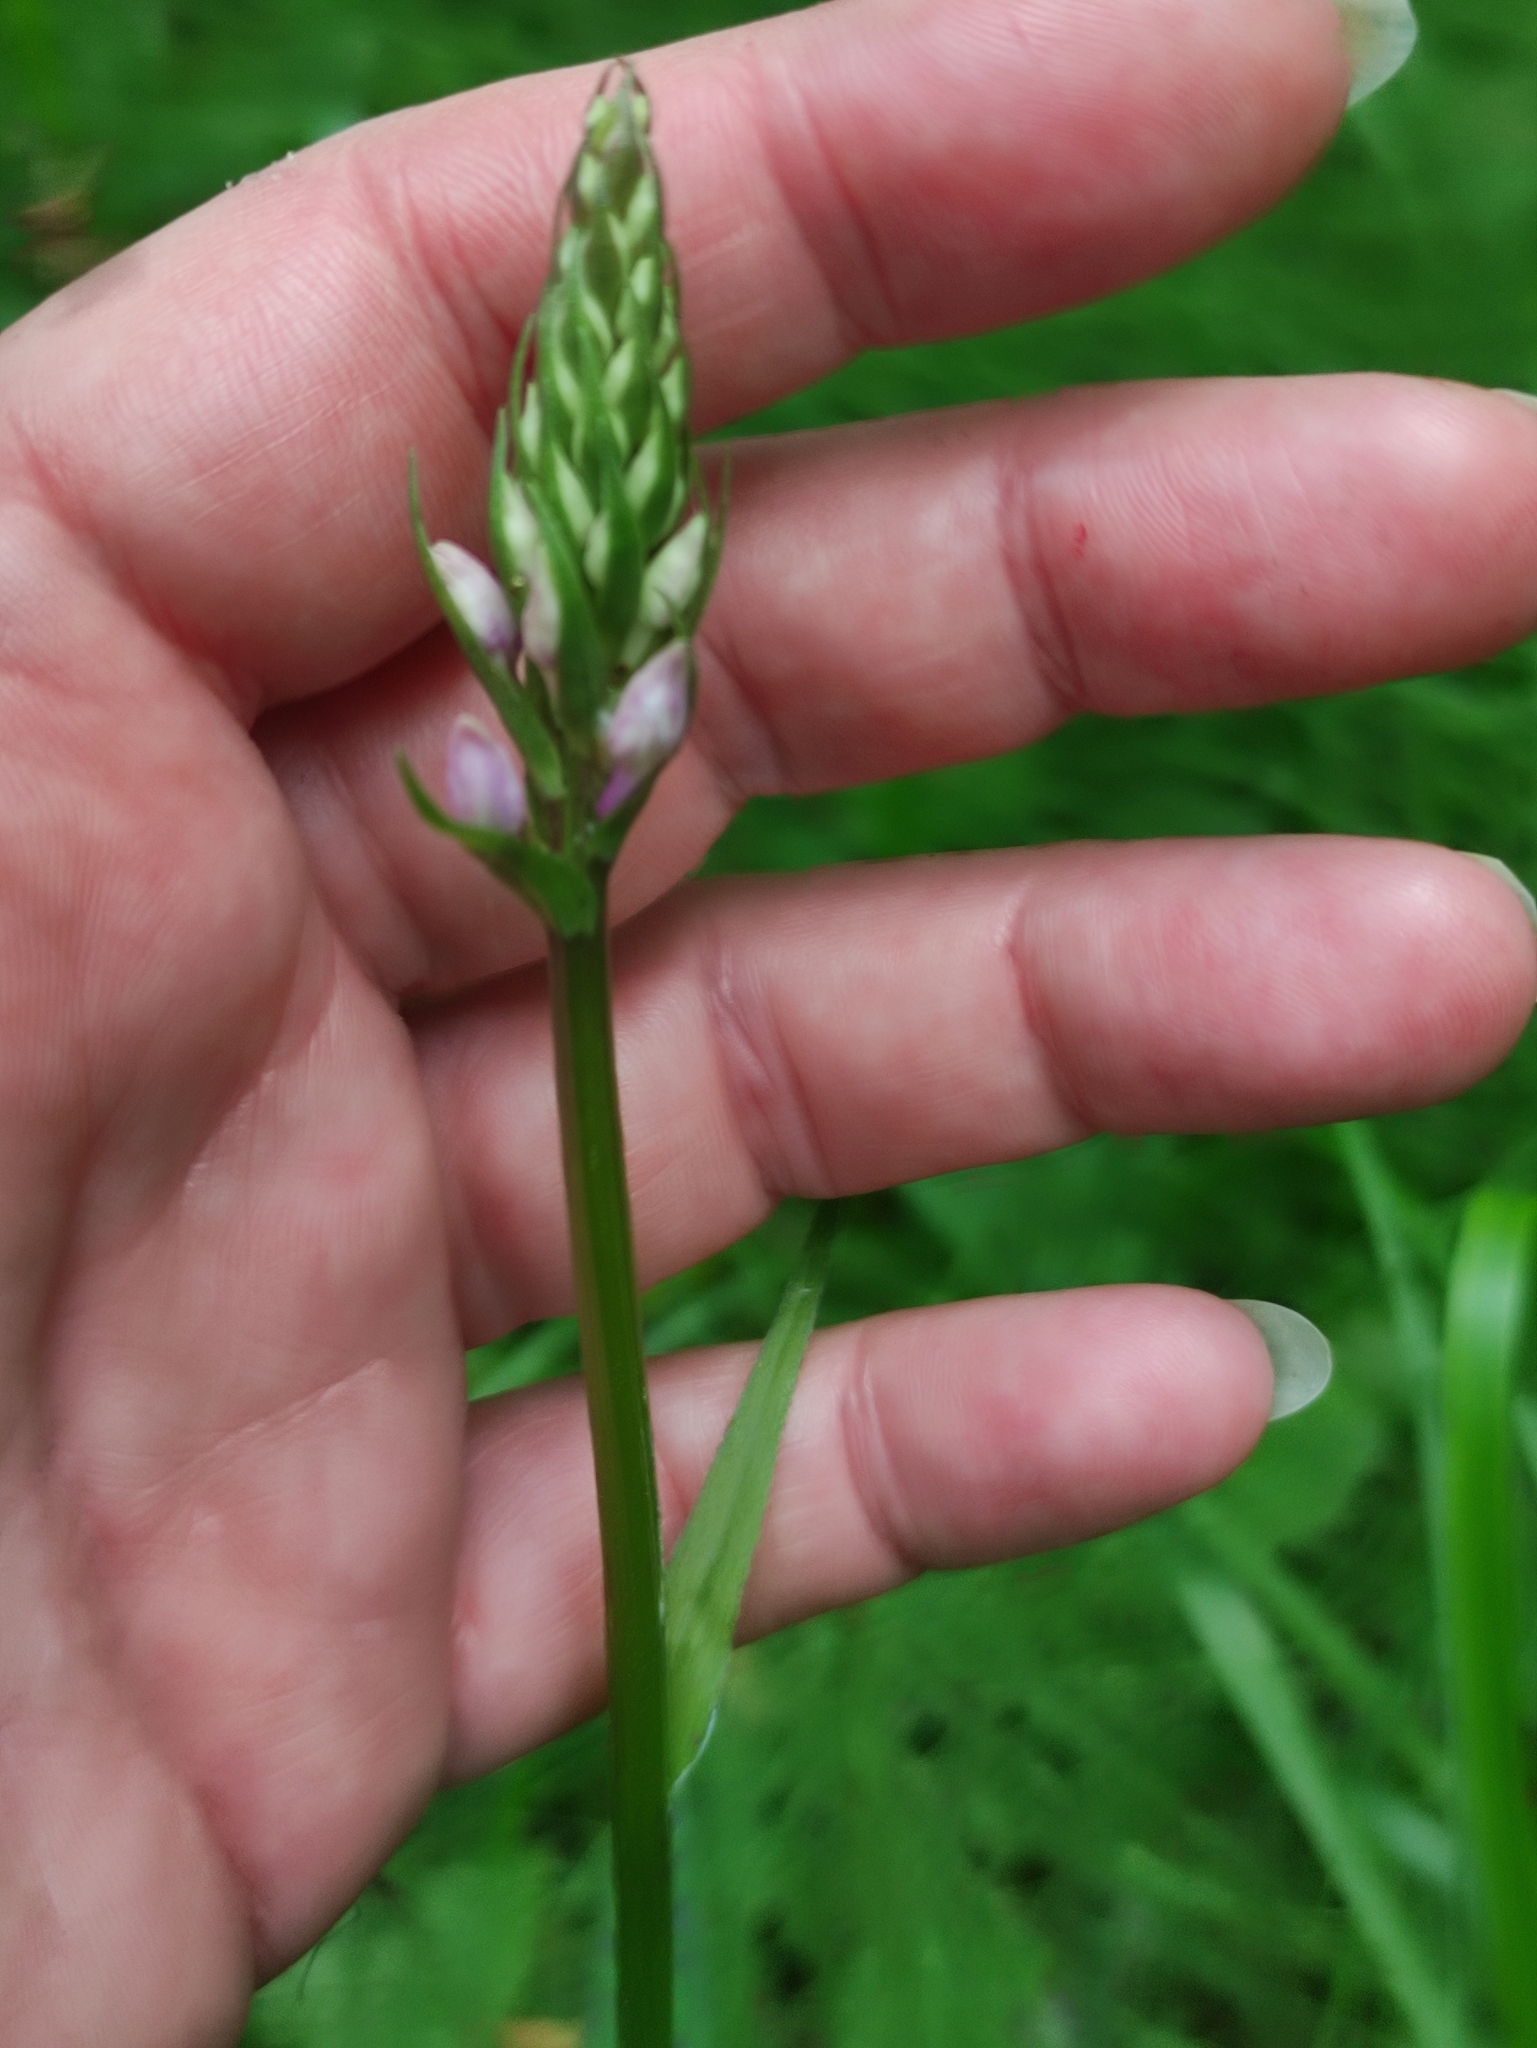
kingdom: Plantae
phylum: Tracheophyta
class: Liliopsida
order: Asparagales
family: Orchidaceae
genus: Dactylorhiza
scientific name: Dactylorhiza maculata
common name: Heath spotted-orchid
